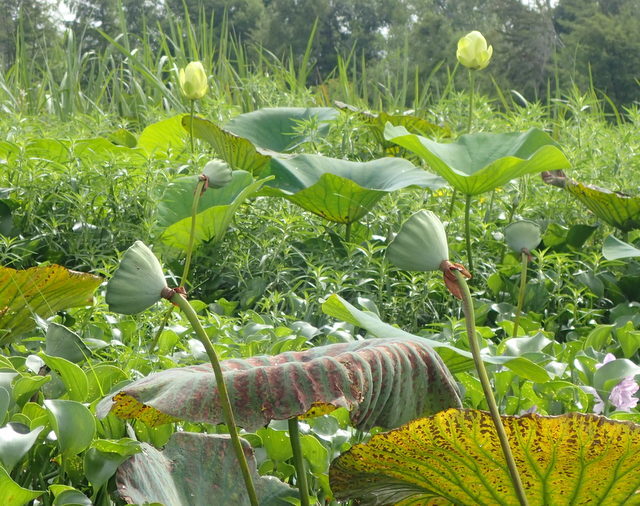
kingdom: Plantae
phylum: Tracheophyta
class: Magnoliopsida
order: Proteales
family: Nelumbonaceae
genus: Nelumbo
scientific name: Nelumbo lutea
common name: American lotus
